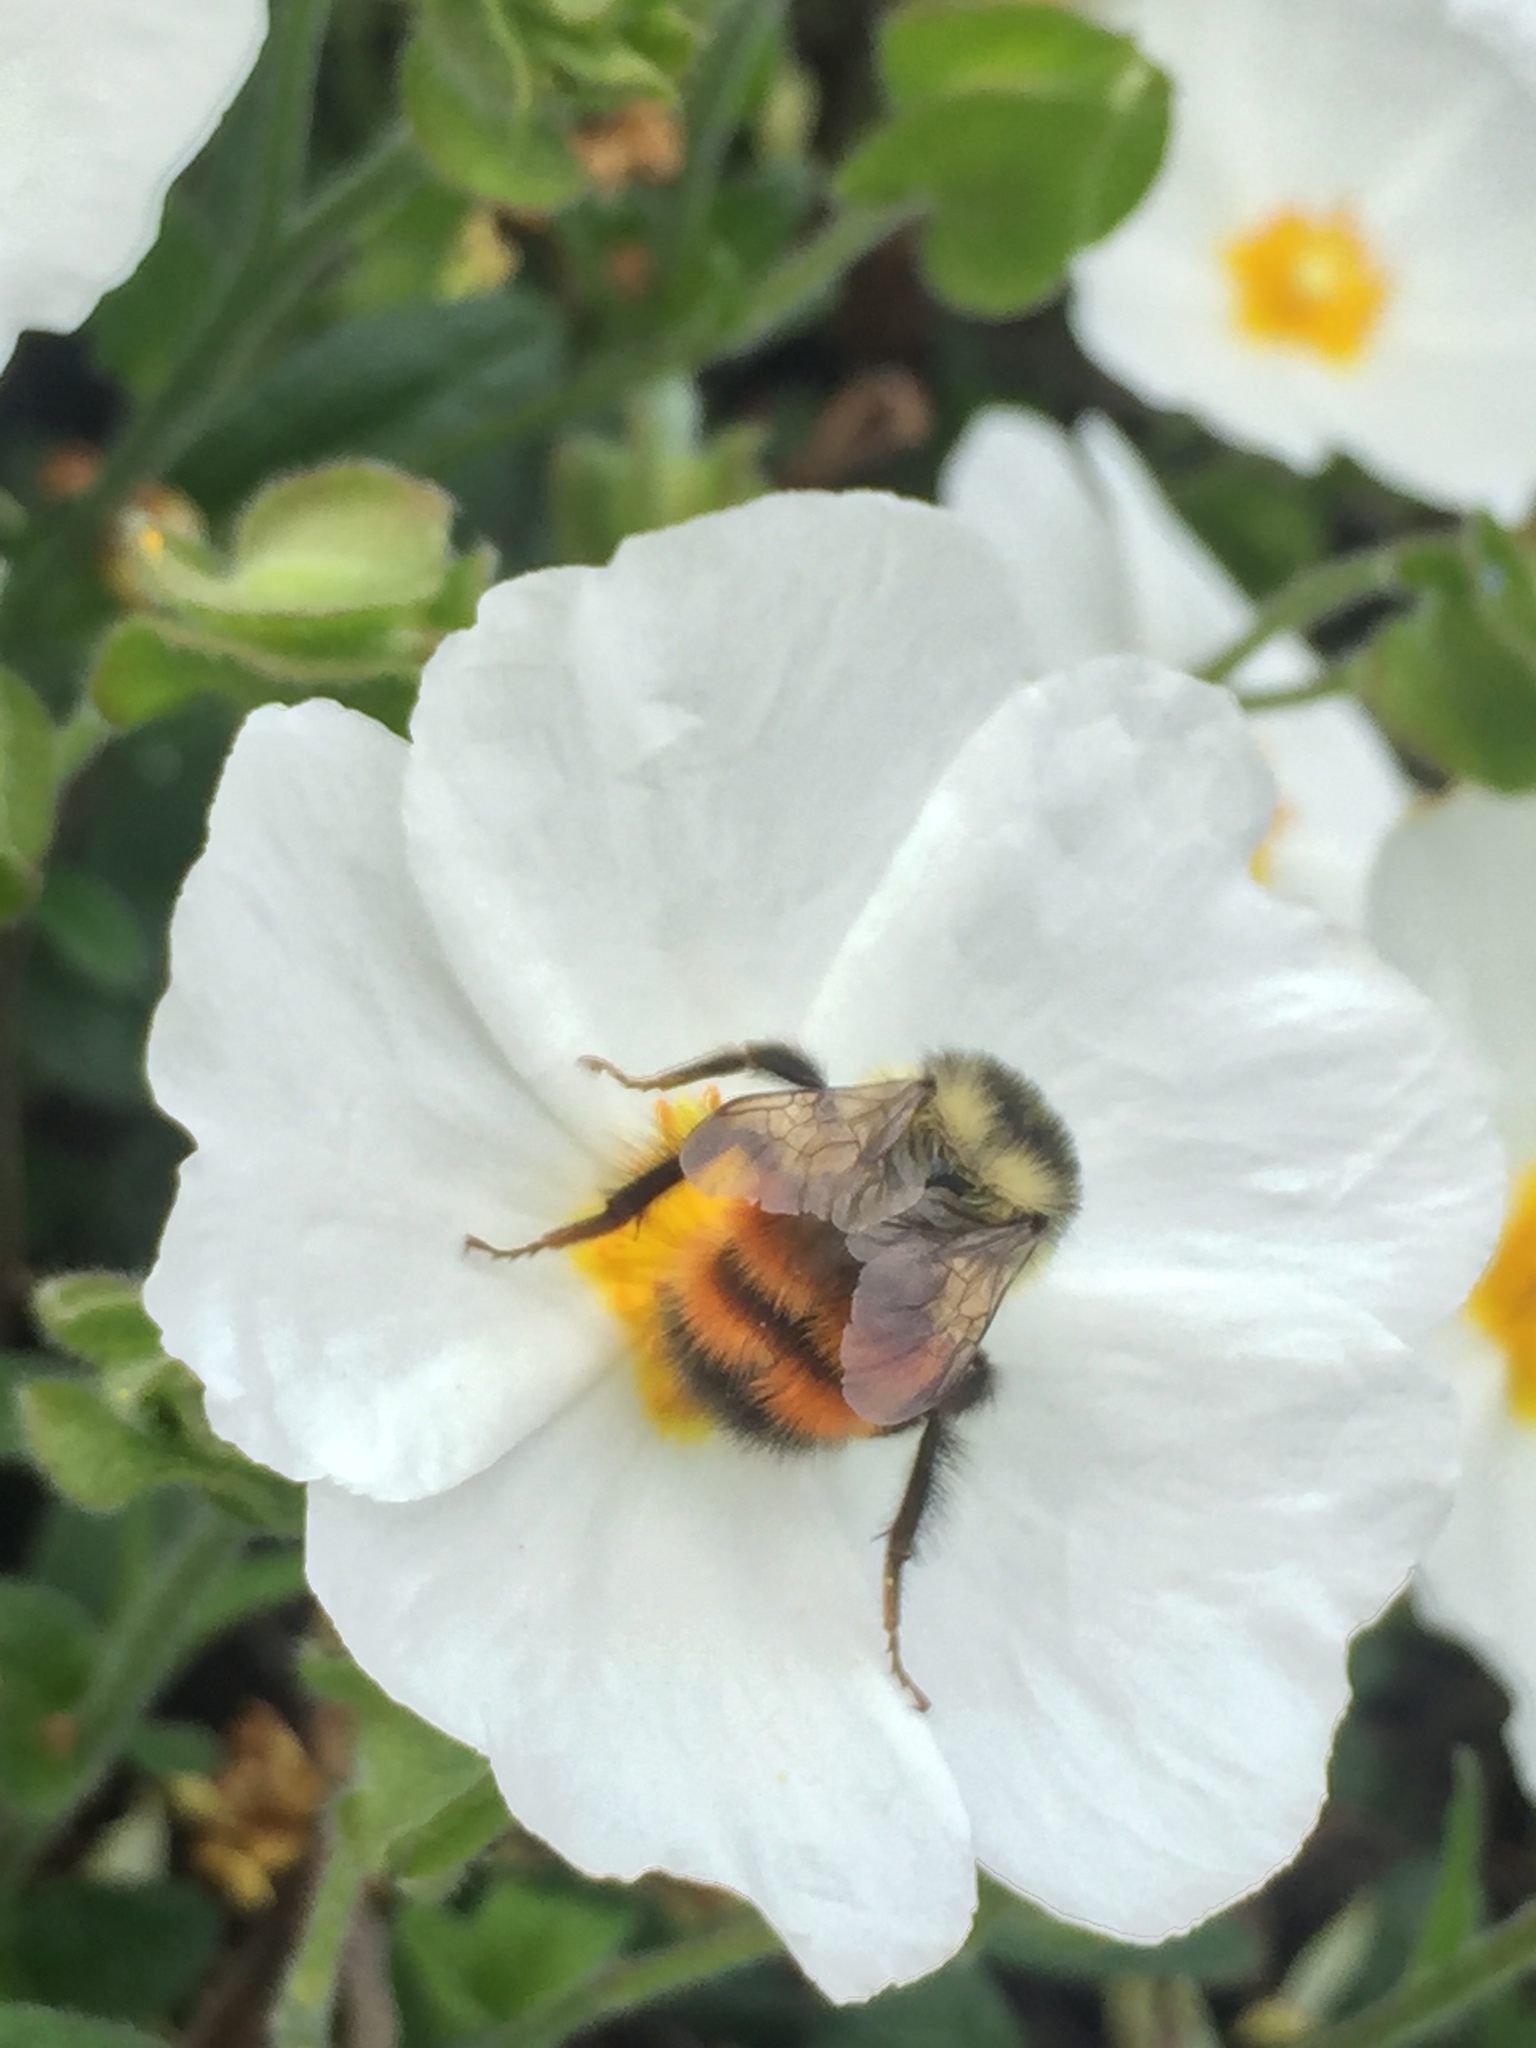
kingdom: Animalia
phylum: Arthropoda
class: Insecta
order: Hymenoptera
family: Apidae
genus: Bombus
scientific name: Bombus melanopygus
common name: Black tail bumble bee
